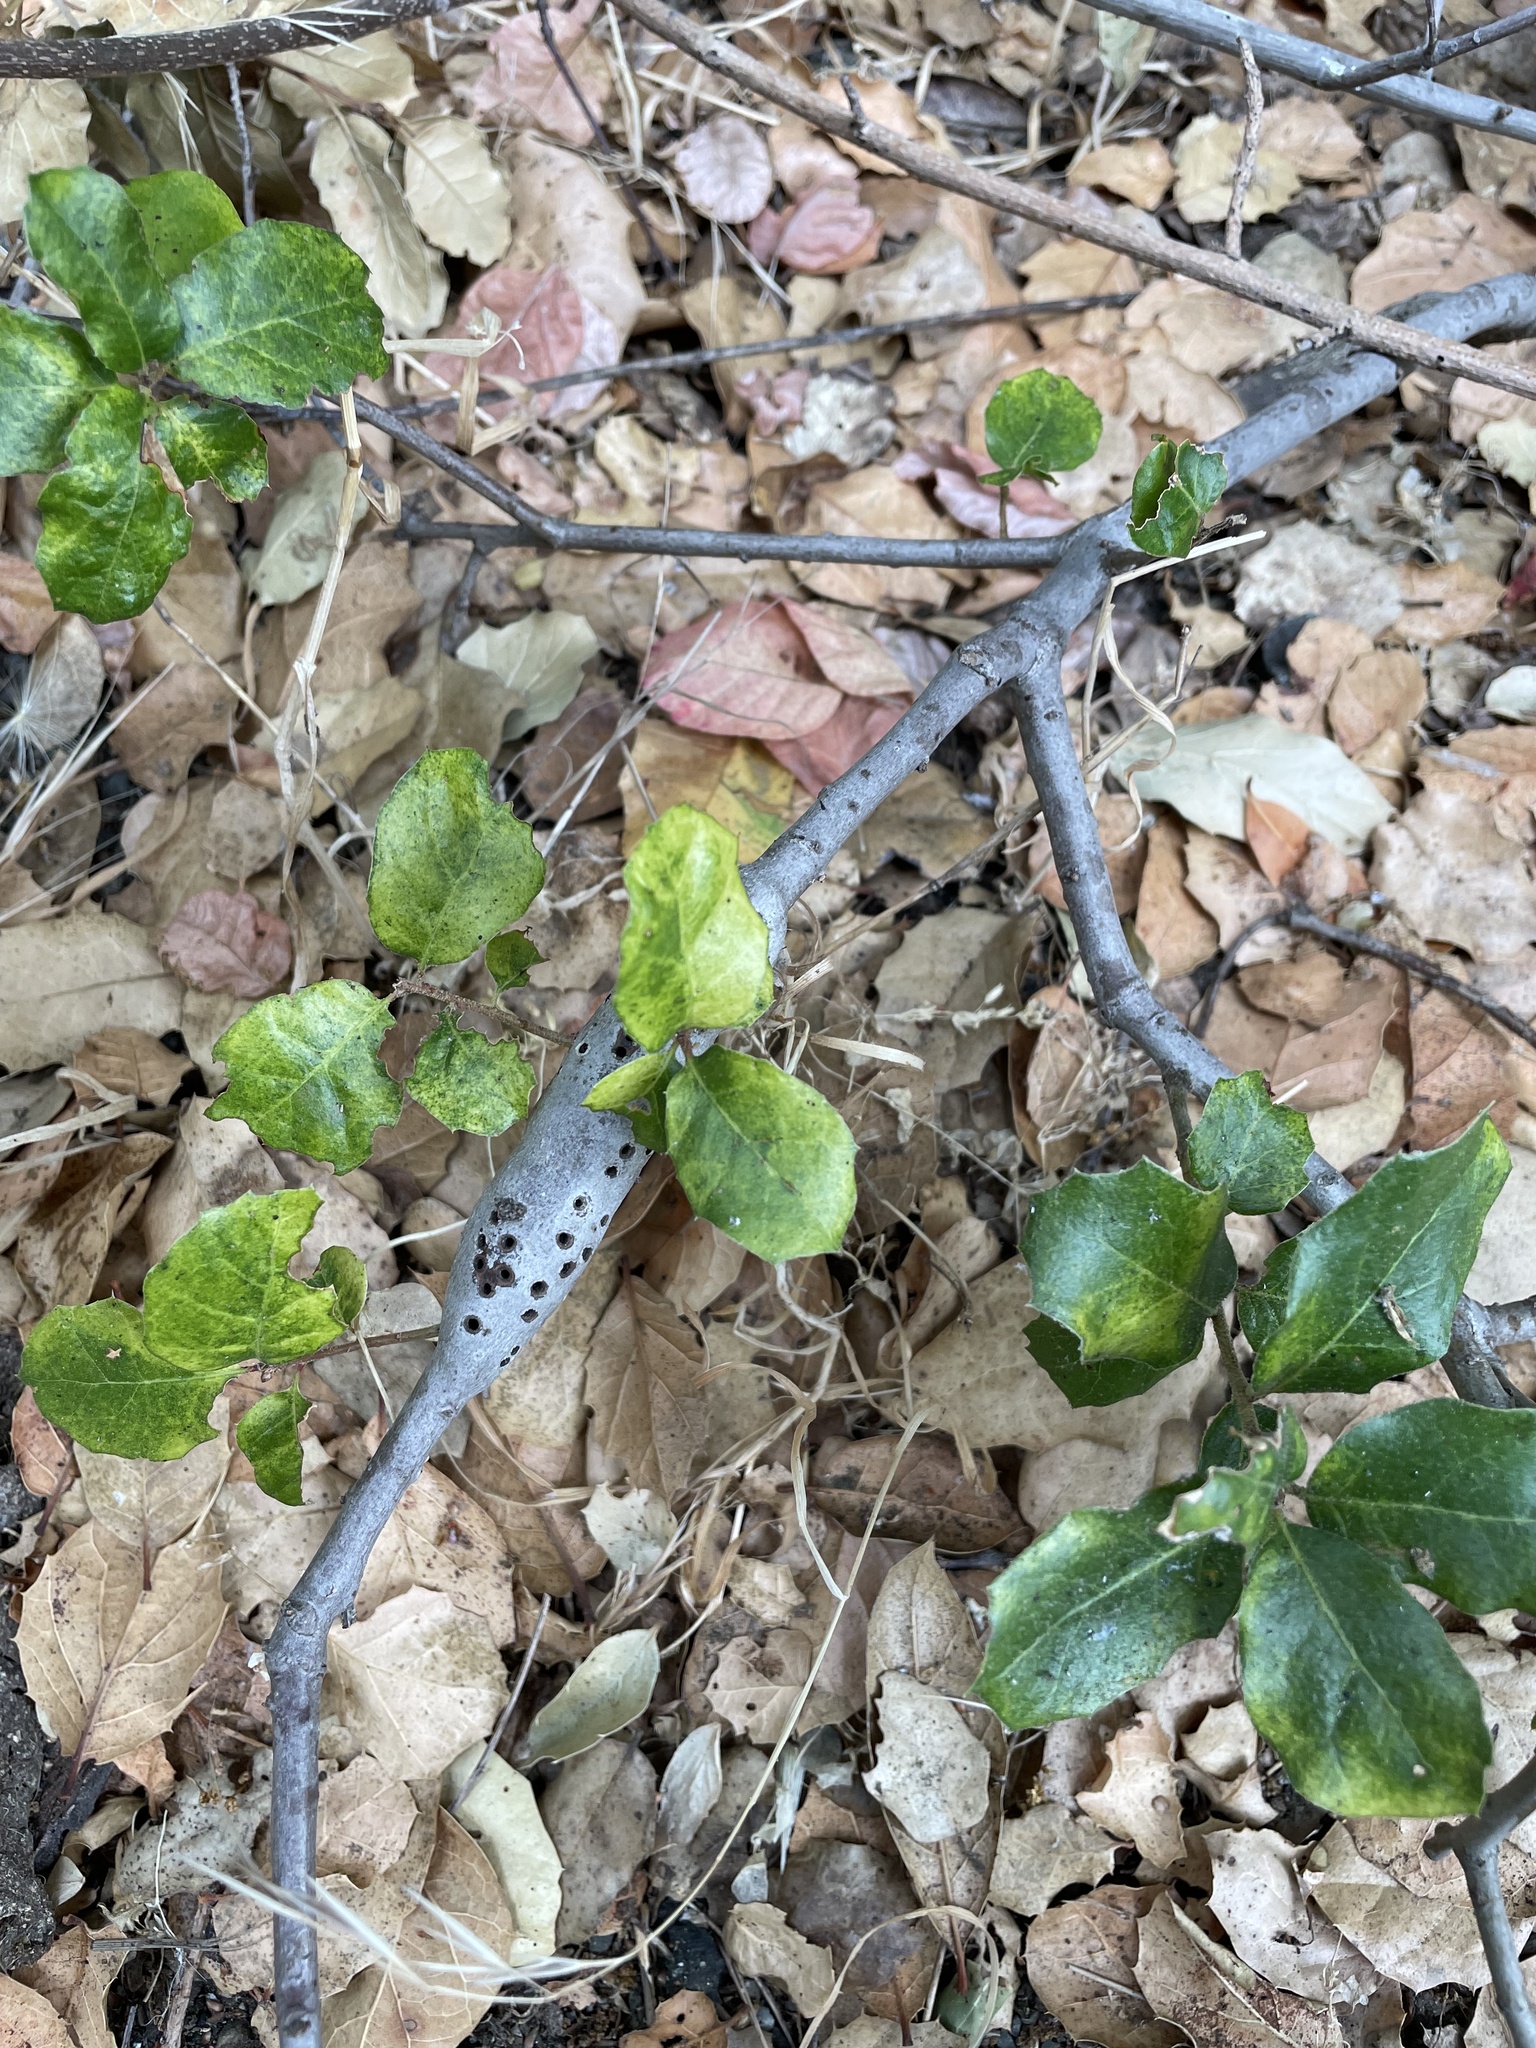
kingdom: Animalia
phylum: Arthropoda
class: Insecta
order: Hymenoptera
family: Cynipidae
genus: Callirhytis
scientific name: Callirhytis
